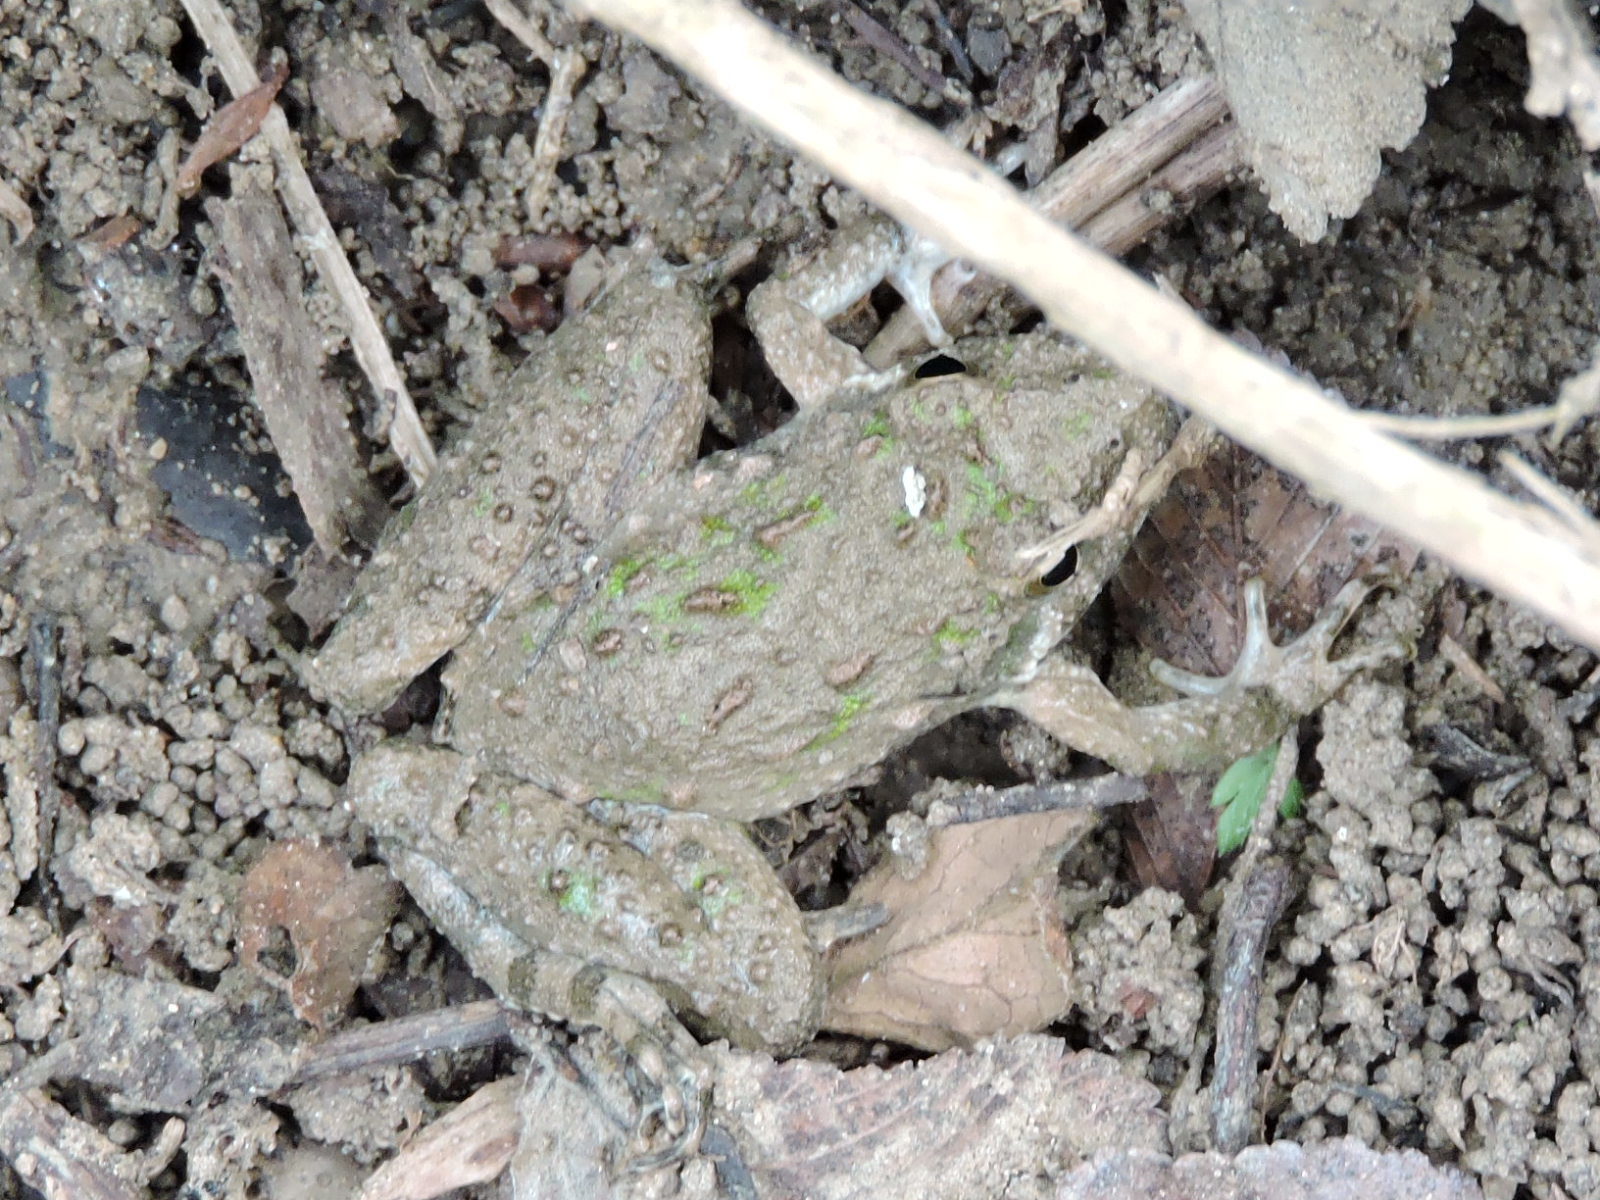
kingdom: Animalia
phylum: Chordata
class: Amphibia
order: Anura
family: Hylidae
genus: Acris
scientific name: Acris blanchardi
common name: Blanchard's cricket frog
